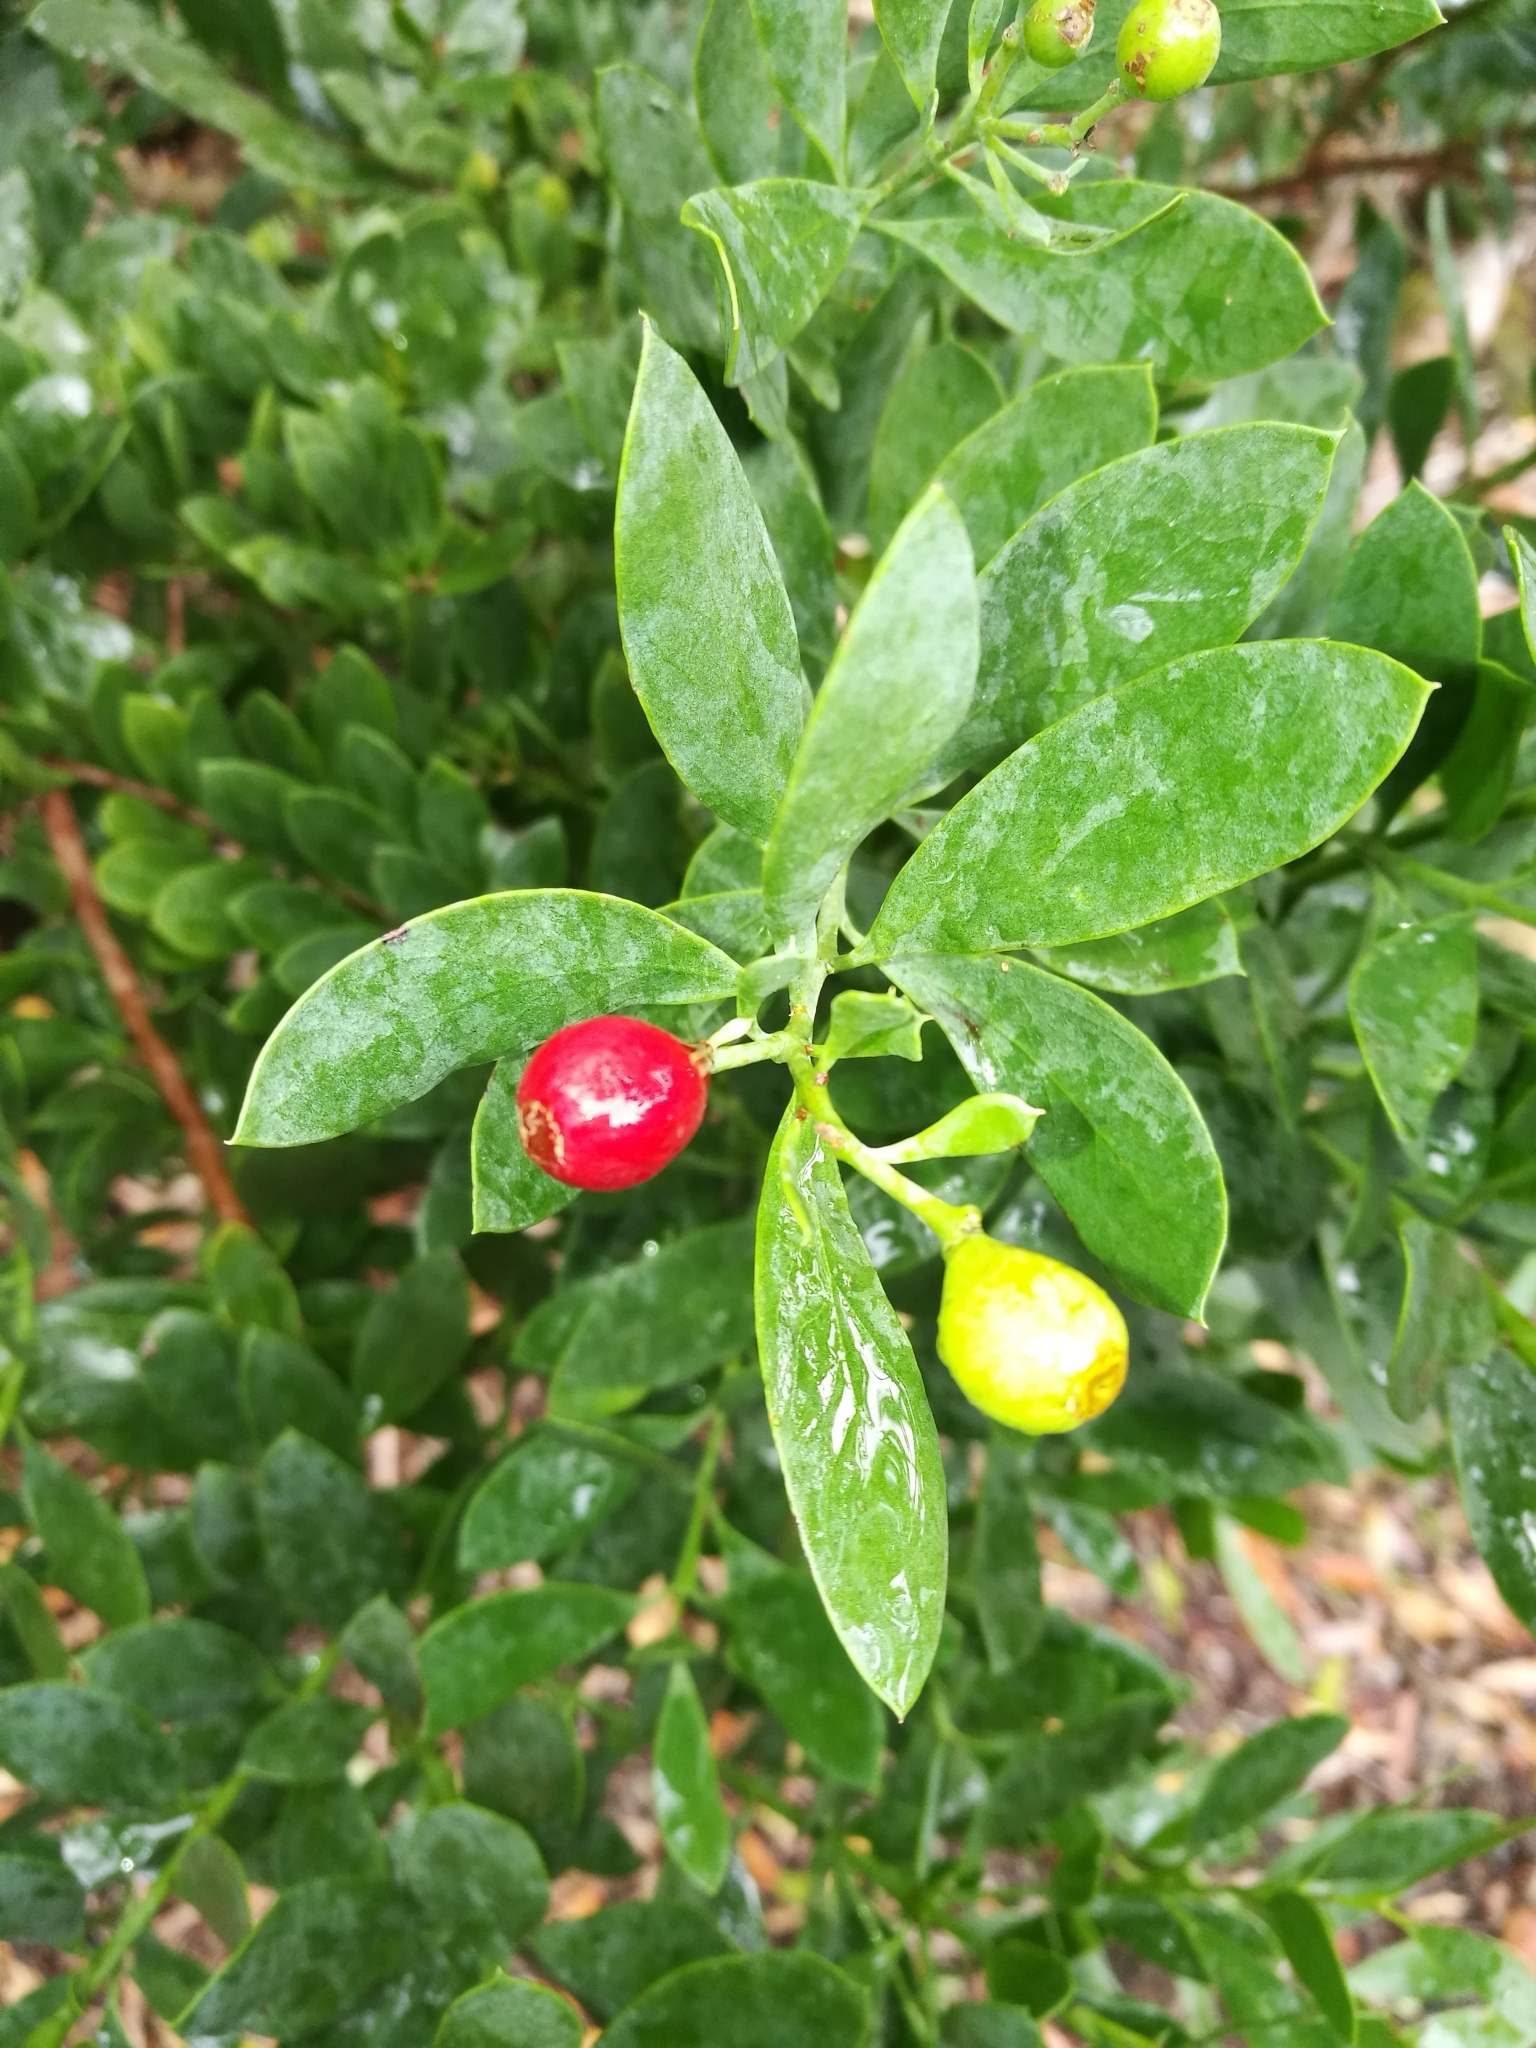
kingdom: Plantae
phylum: Tracheophyta
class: Magnoliopsida
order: Santalales
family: Santalaceae
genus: Osyris
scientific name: Osyris compressa
